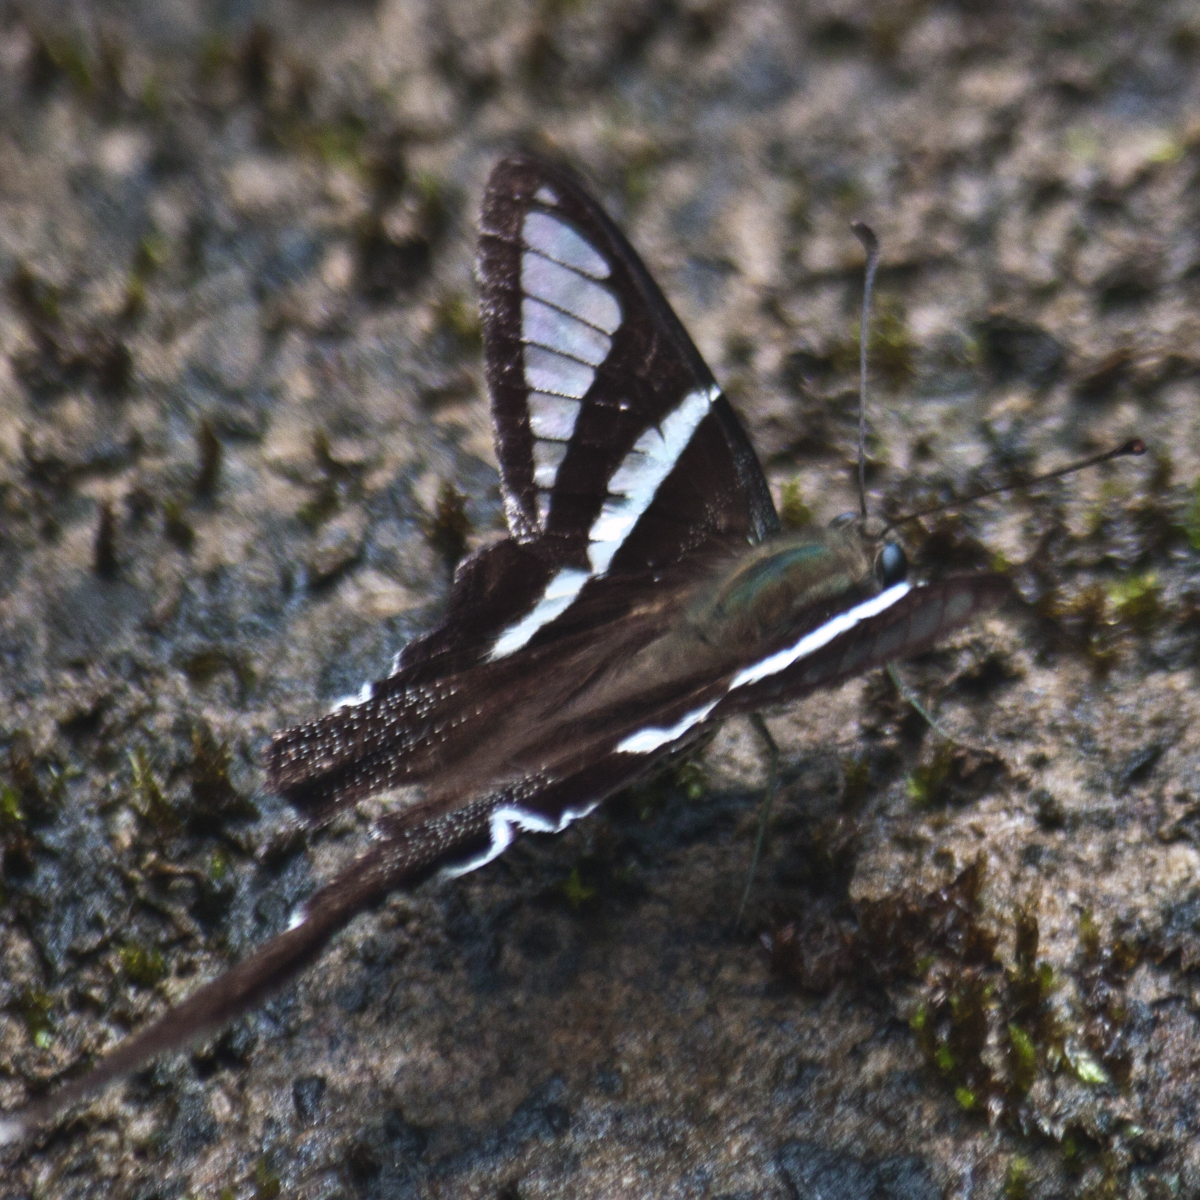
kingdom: Animalia
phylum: Arthropoda
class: Insecta
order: Lepidoptera
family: Papilionidae
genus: Lamproptera
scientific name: Lamproptera curius
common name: White dragontail
